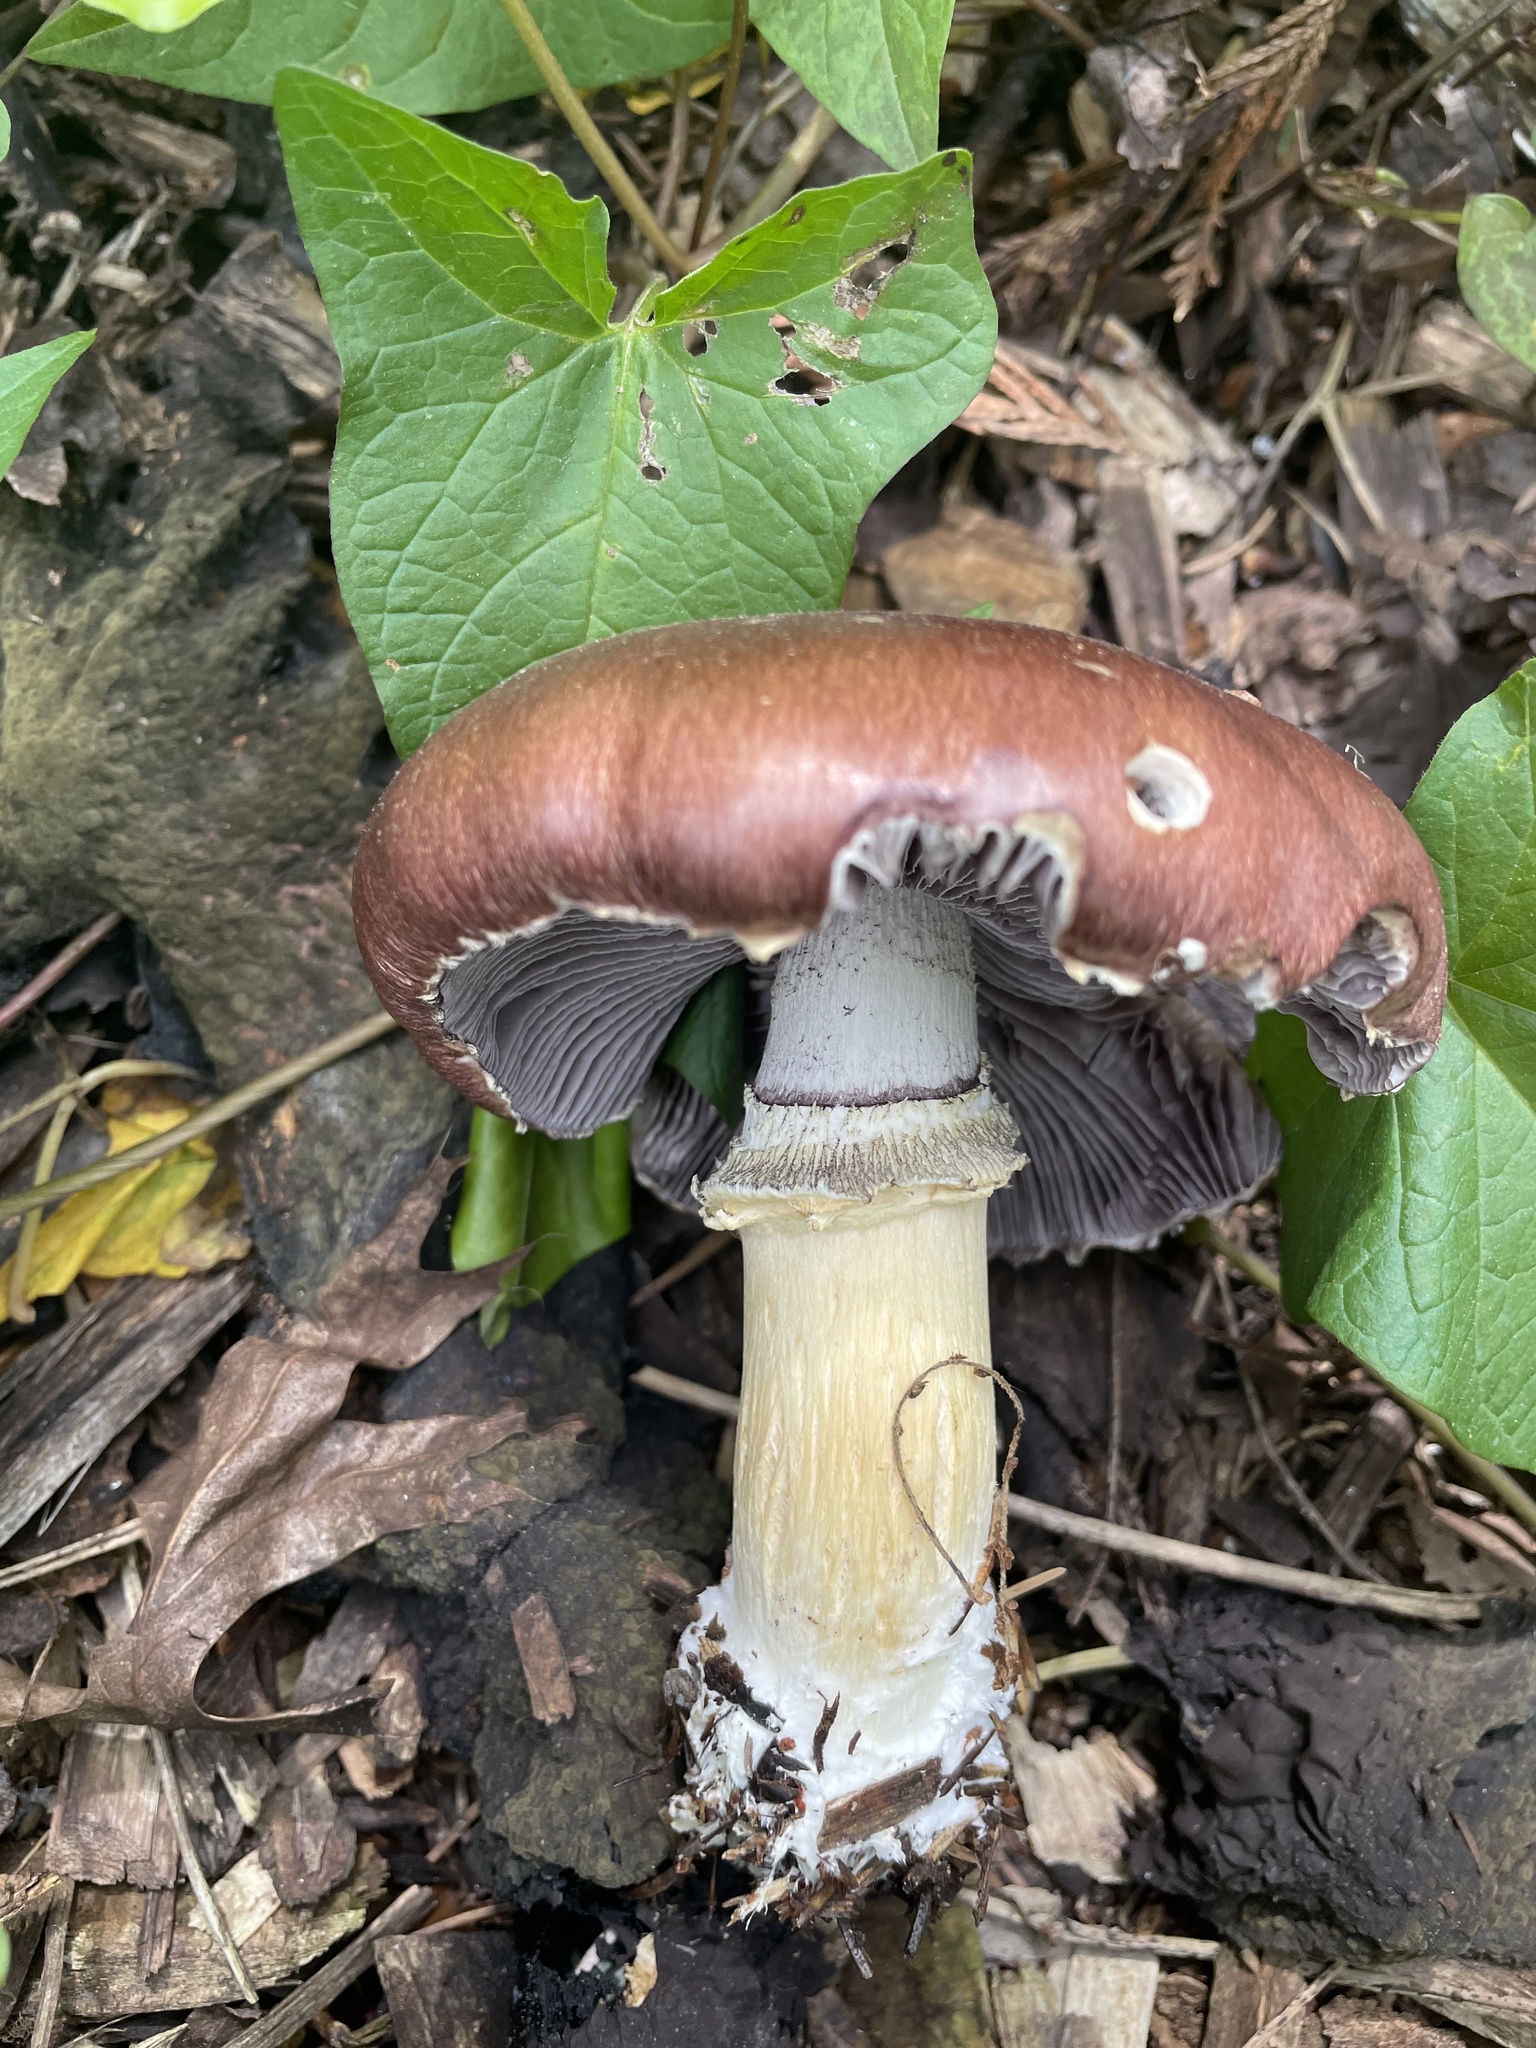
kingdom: Fungi
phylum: Basidiomycota
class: Agaricomycetes
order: Agaricales
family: Strophariaceae
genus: Stropharia
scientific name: Stropharia rugosoannulata
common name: Wine roundhead
